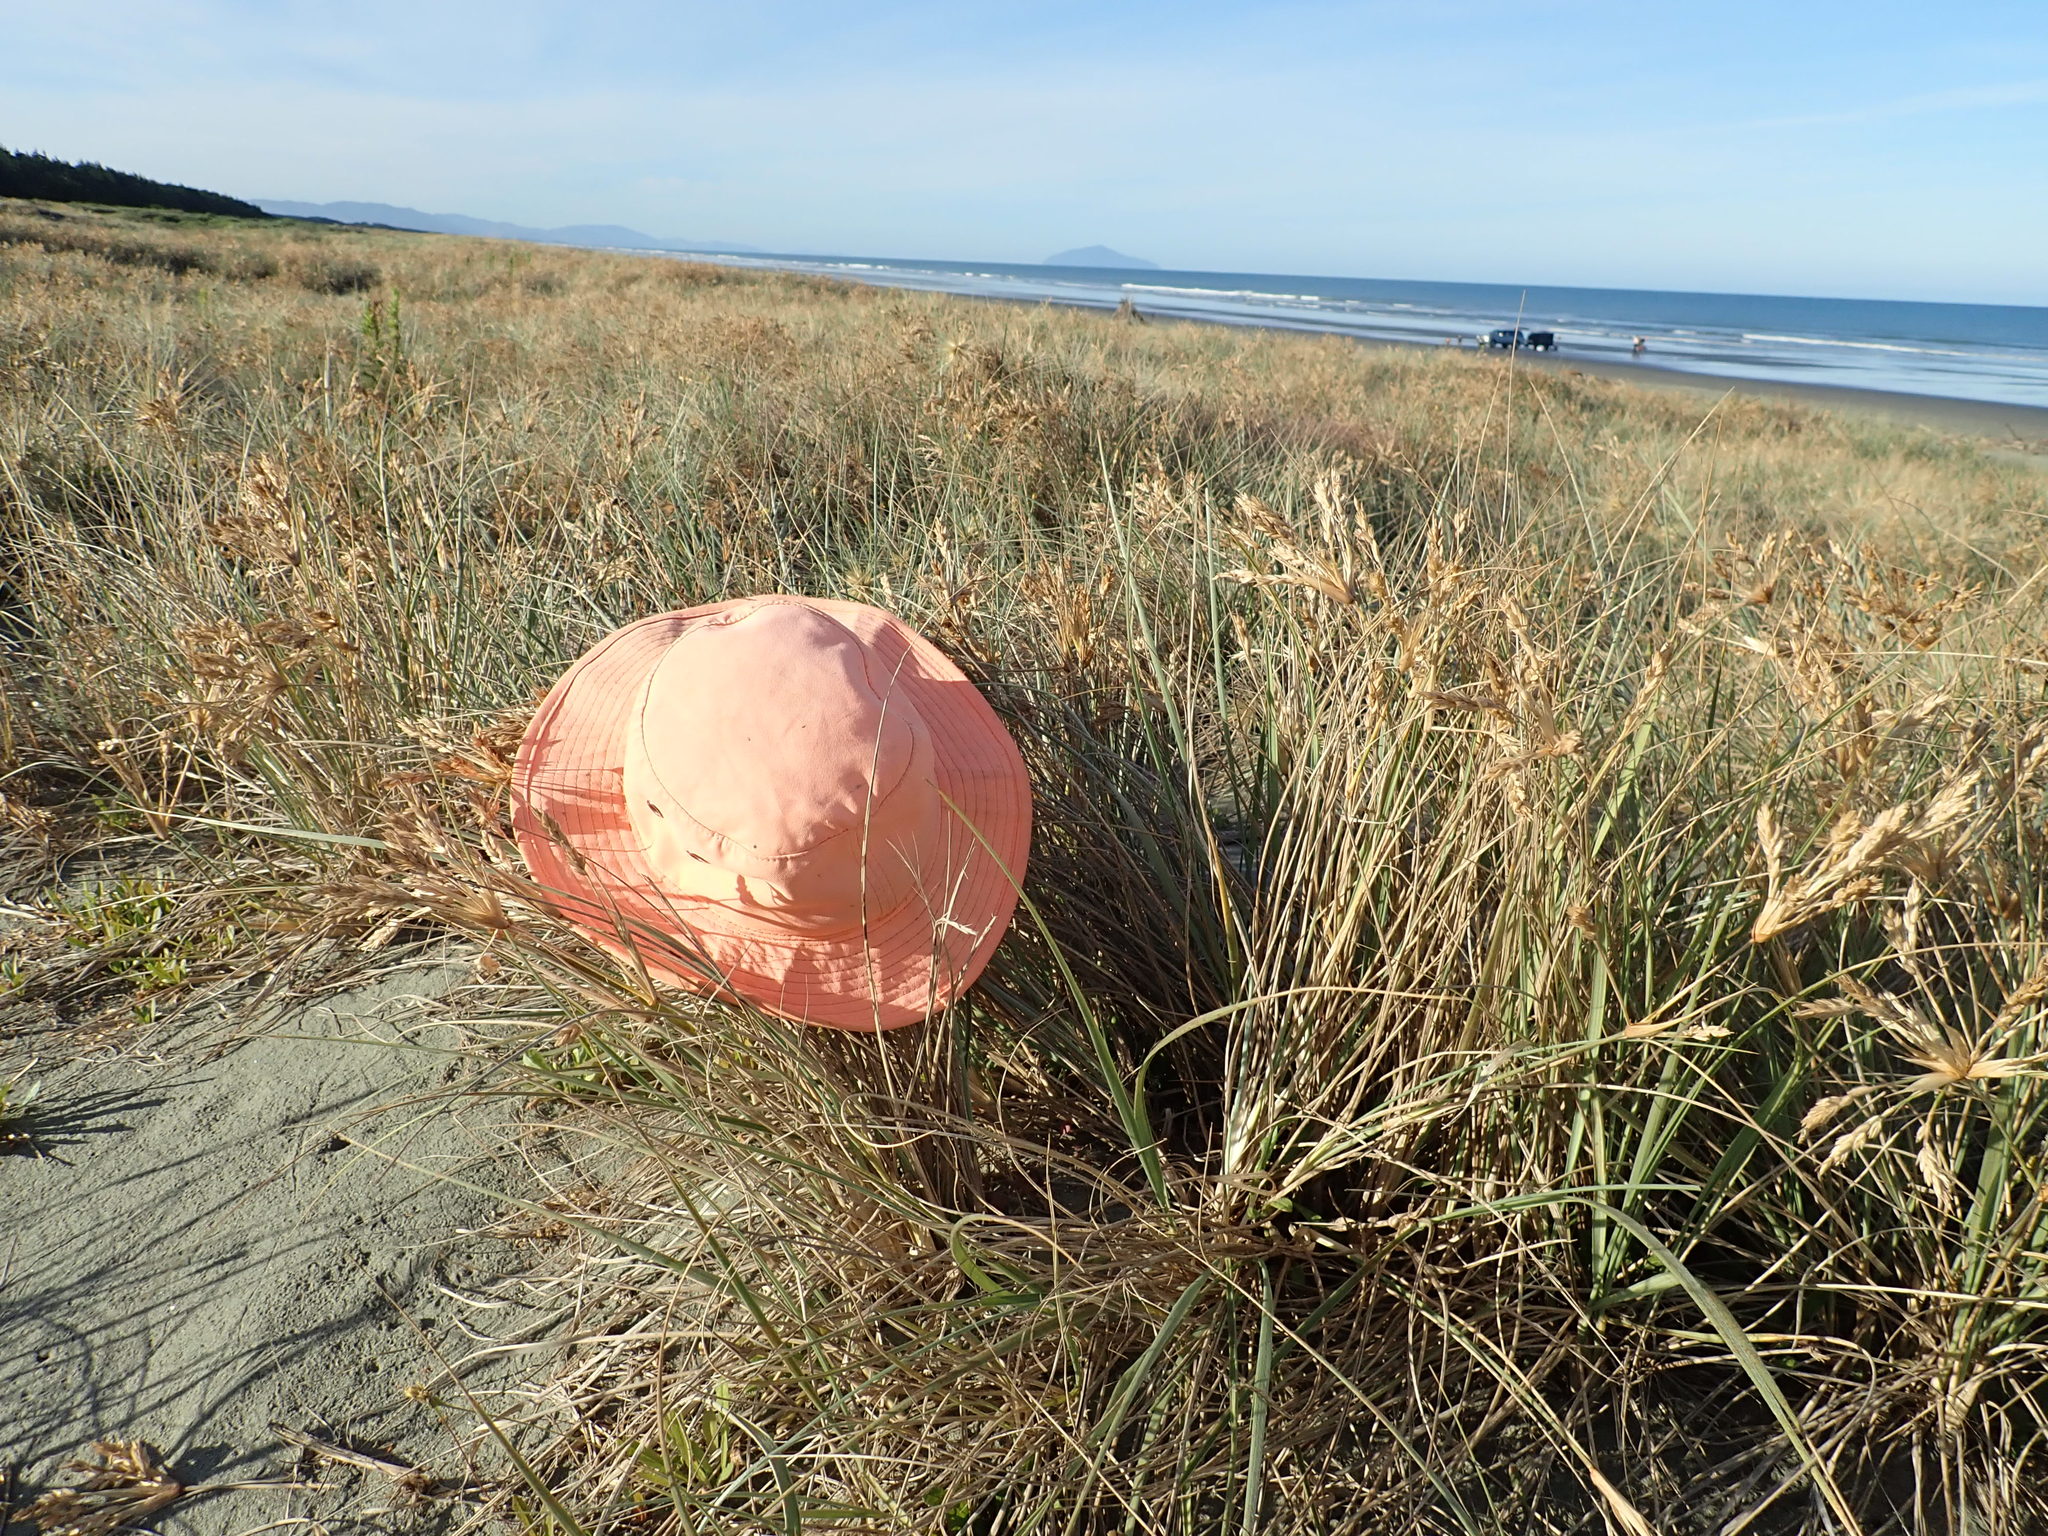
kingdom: Animalia
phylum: Arthropoda
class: Arachnida
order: Araneae
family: Theridiidae
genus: Steatoda
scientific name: Steatoda capensis
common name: Cobweb weaver
